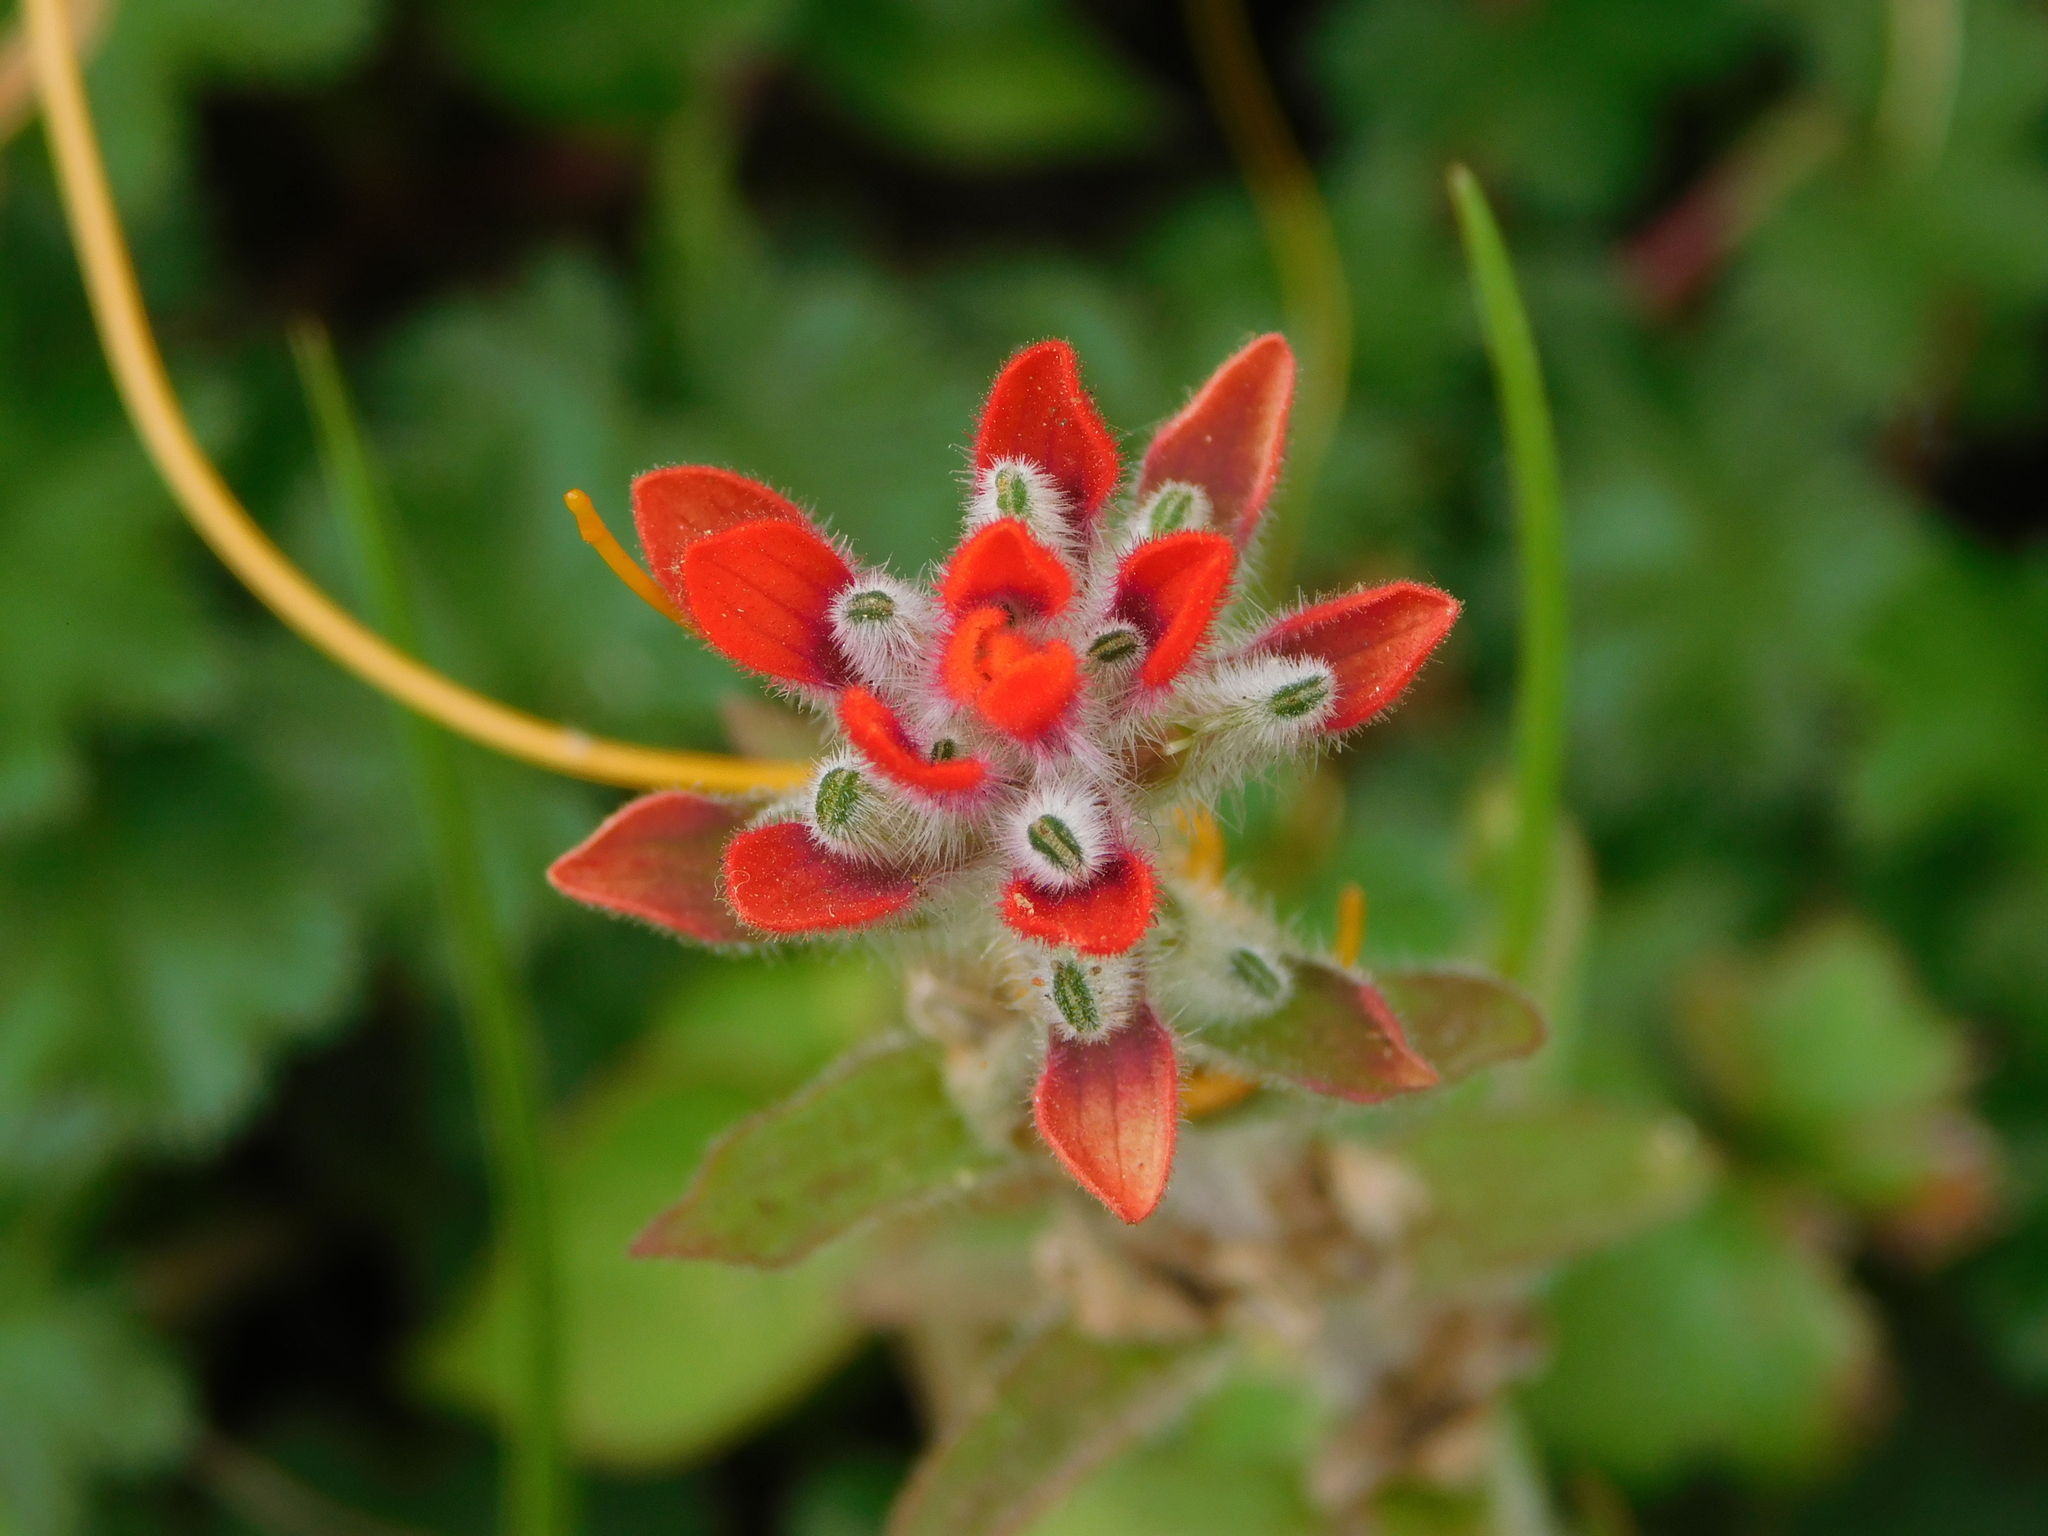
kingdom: Plantae
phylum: Tracheophyta
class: Magnoliopsida
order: Lamiales
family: Orobanchaceae
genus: Castilleja
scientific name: Castilleja arvensis
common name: Indian paintbrush
